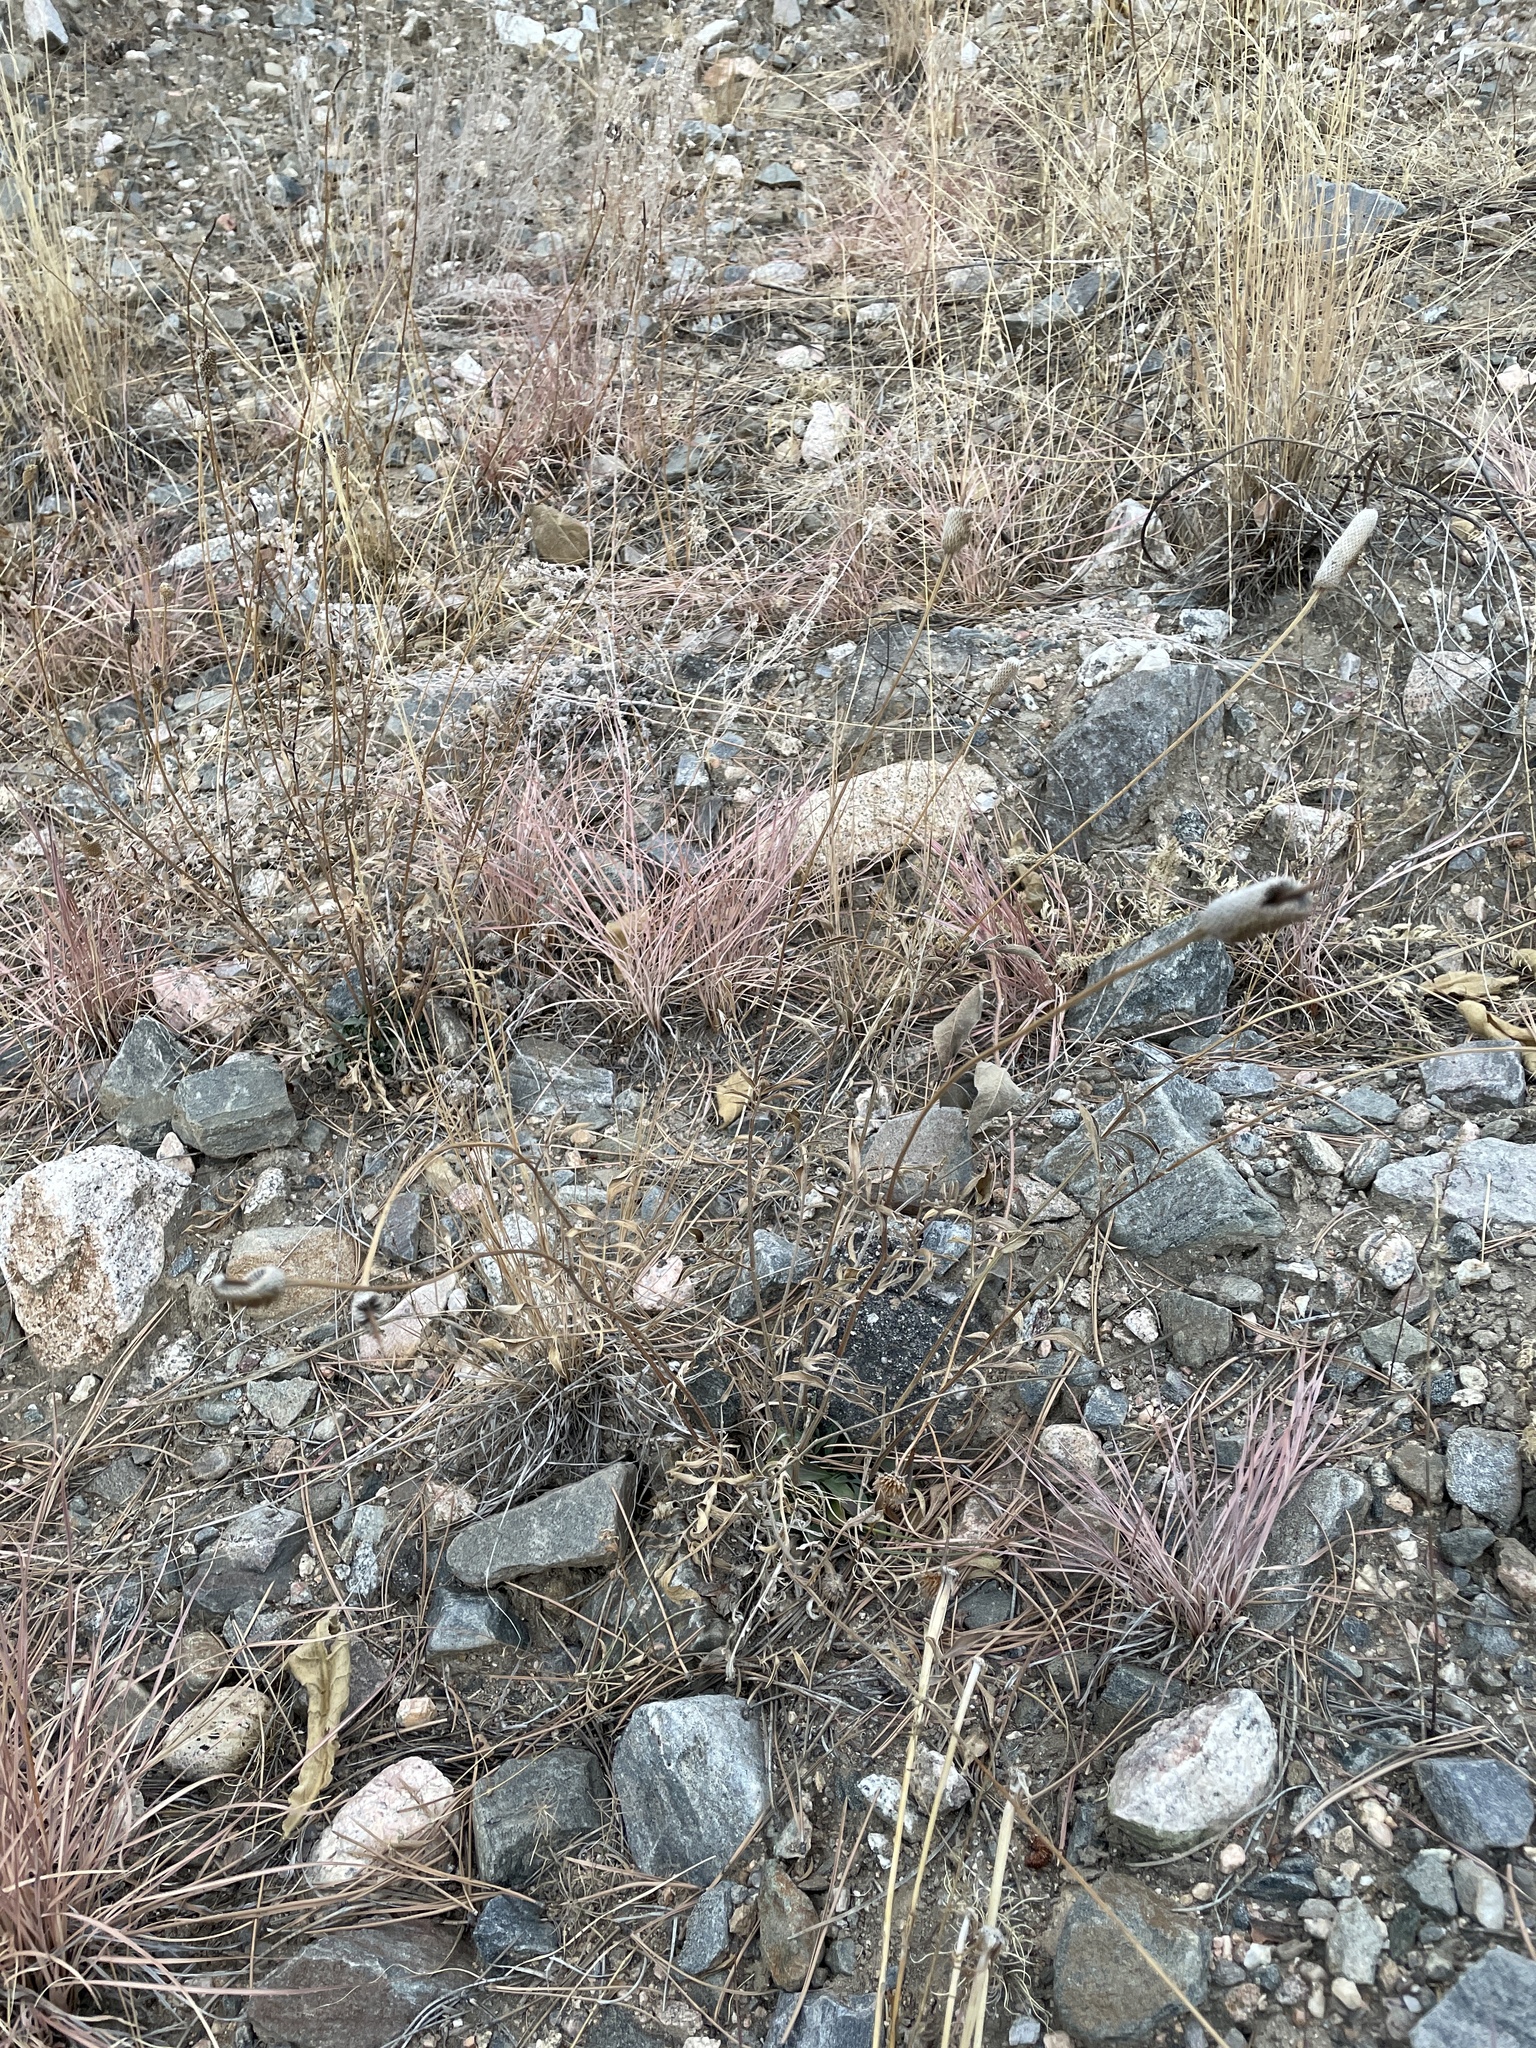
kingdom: Plantae
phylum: Tracheophyta
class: Magnoliopsida
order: Asterales
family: Asteraceae
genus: Ratibida
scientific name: Ratibida columnifera
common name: Prairie coneflower
